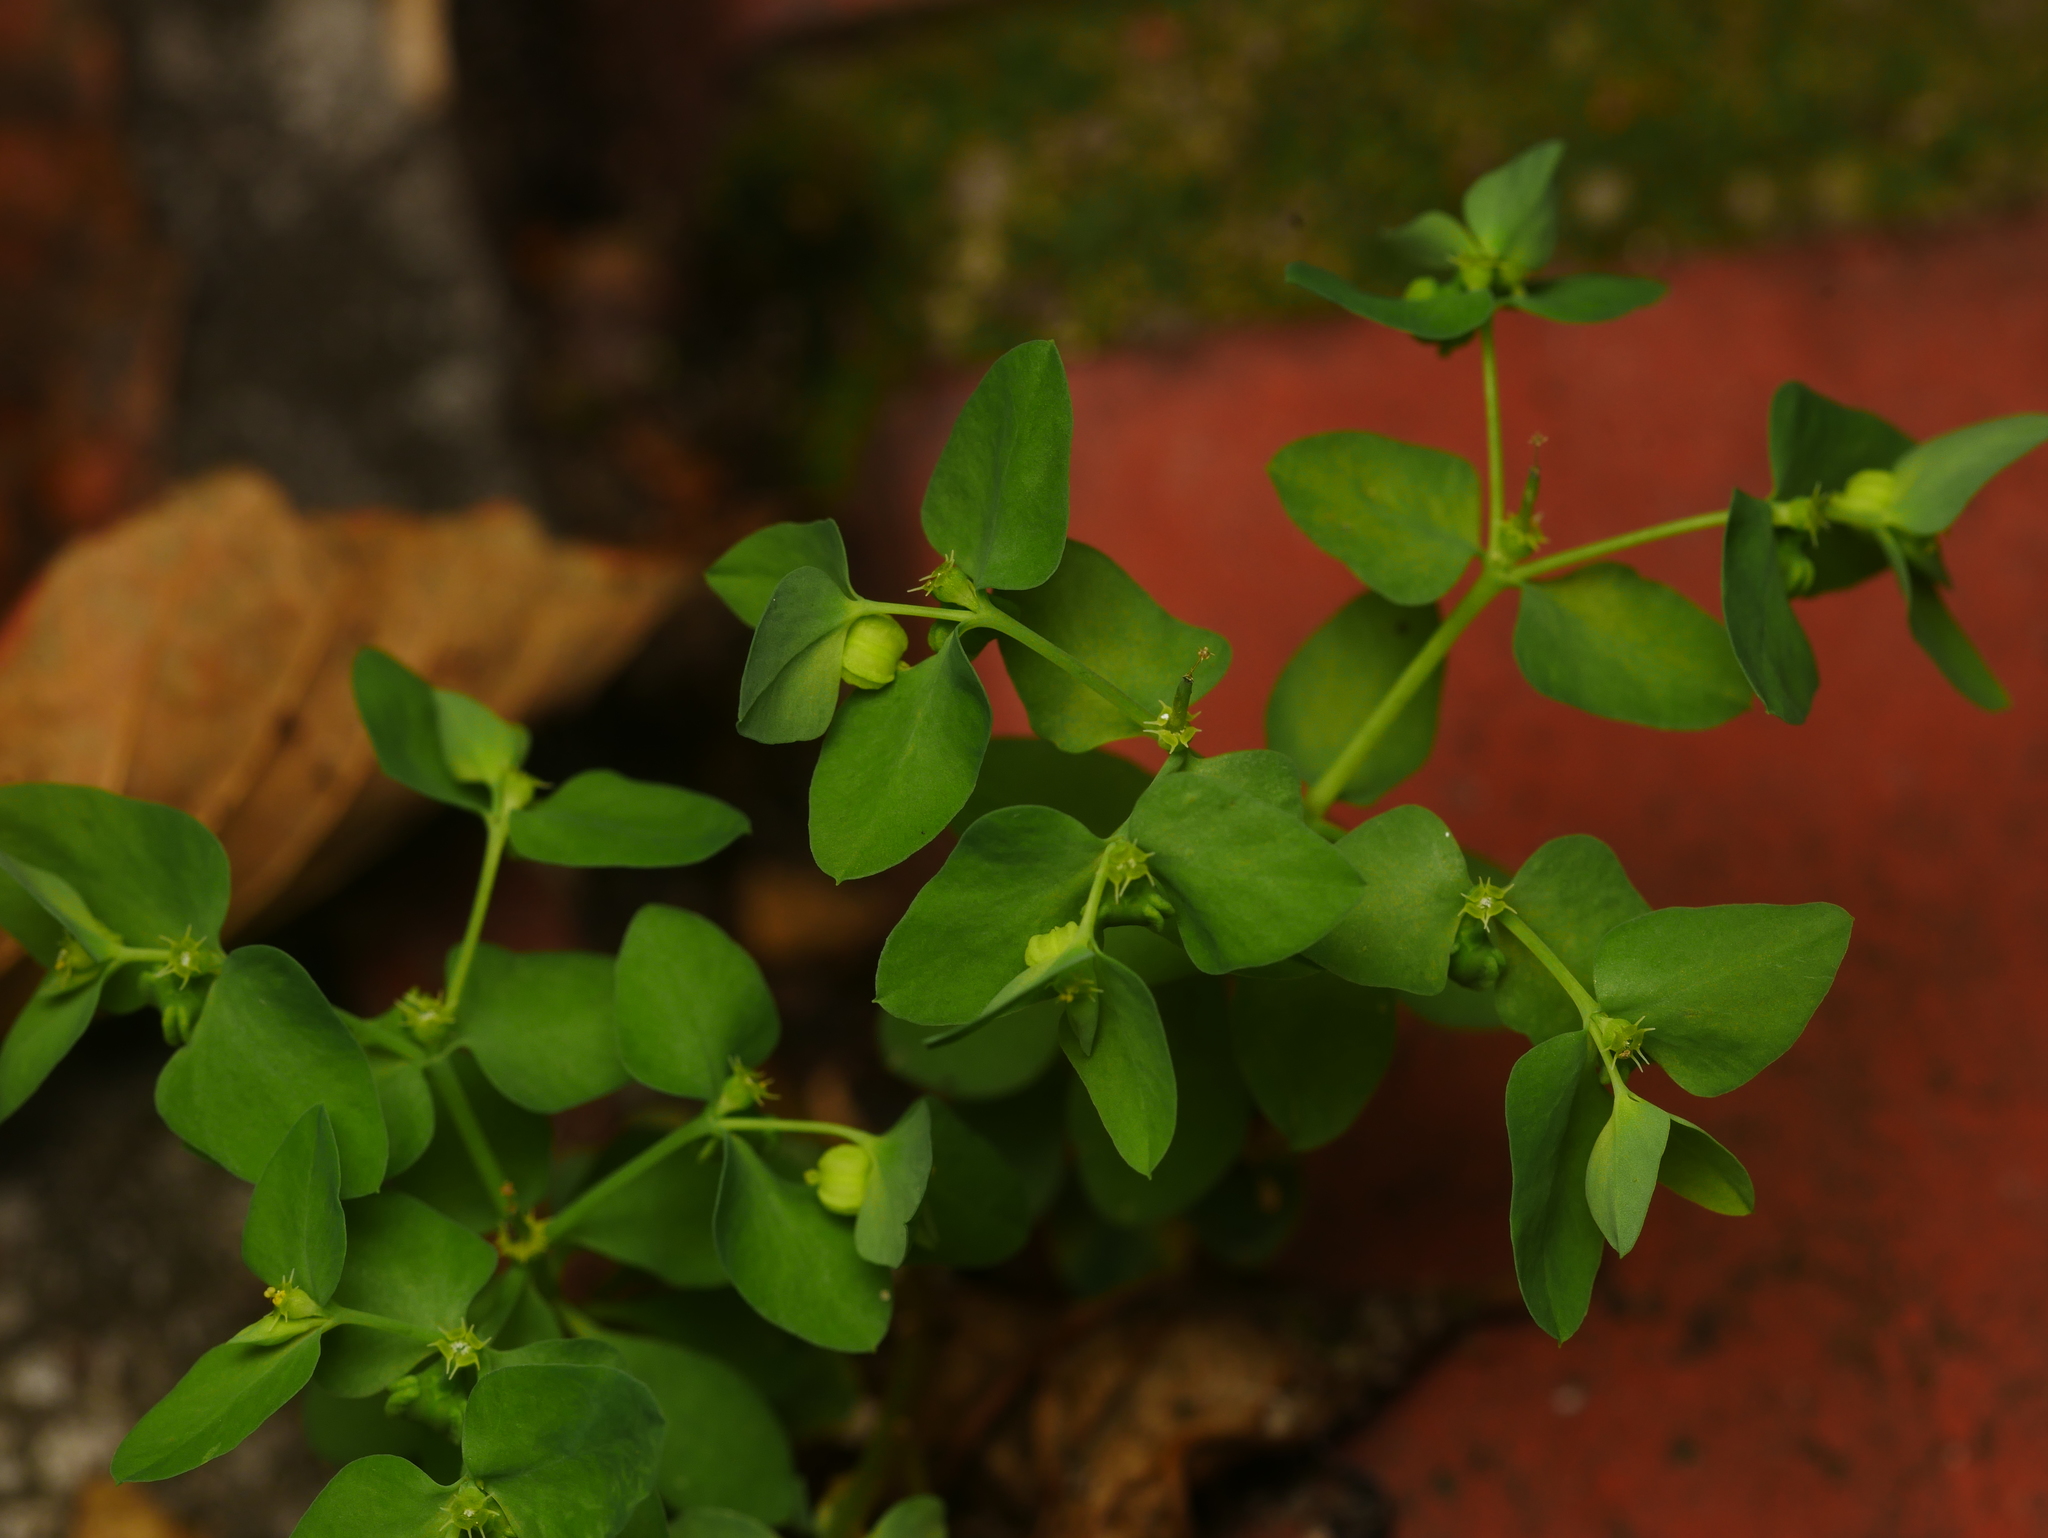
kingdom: Plantae
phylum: Tracheophyta
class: Magnoliopsida
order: Malpighiales
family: Euphorbiaceae
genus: Euphorbia
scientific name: Euphorbia peplus
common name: Petty spurge
